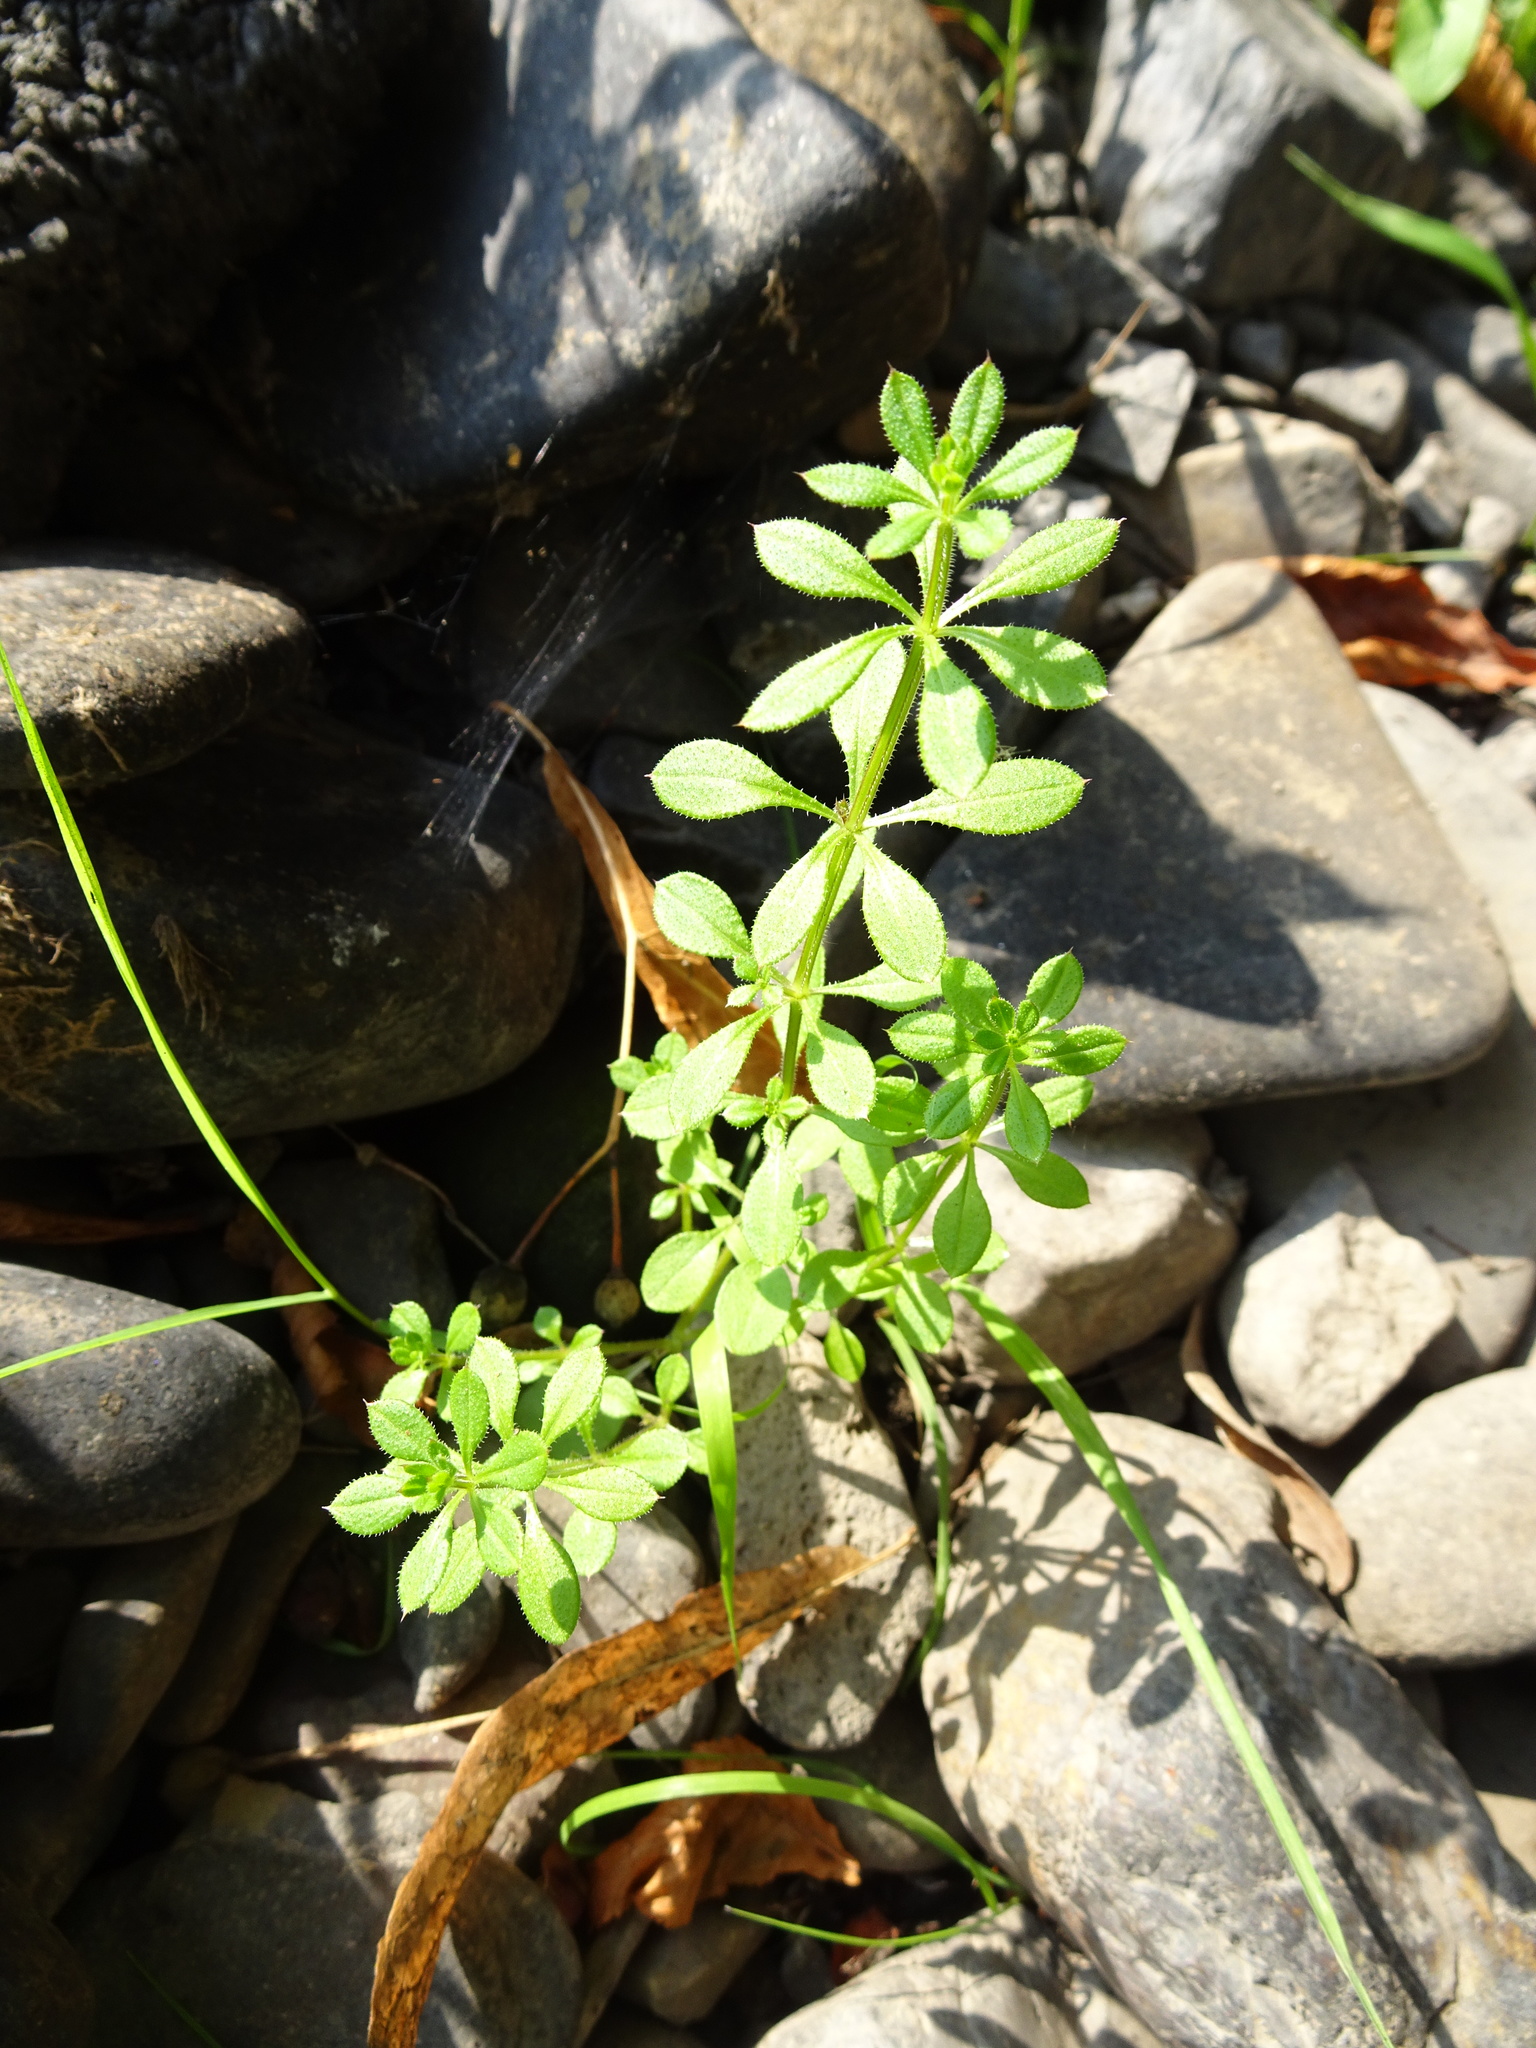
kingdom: Plantae
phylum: Tracheophyta
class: Magnoliopsida
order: Gentianales
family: Rubiaceae
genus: Galium
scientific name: Galium aparine
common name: Cleavers
